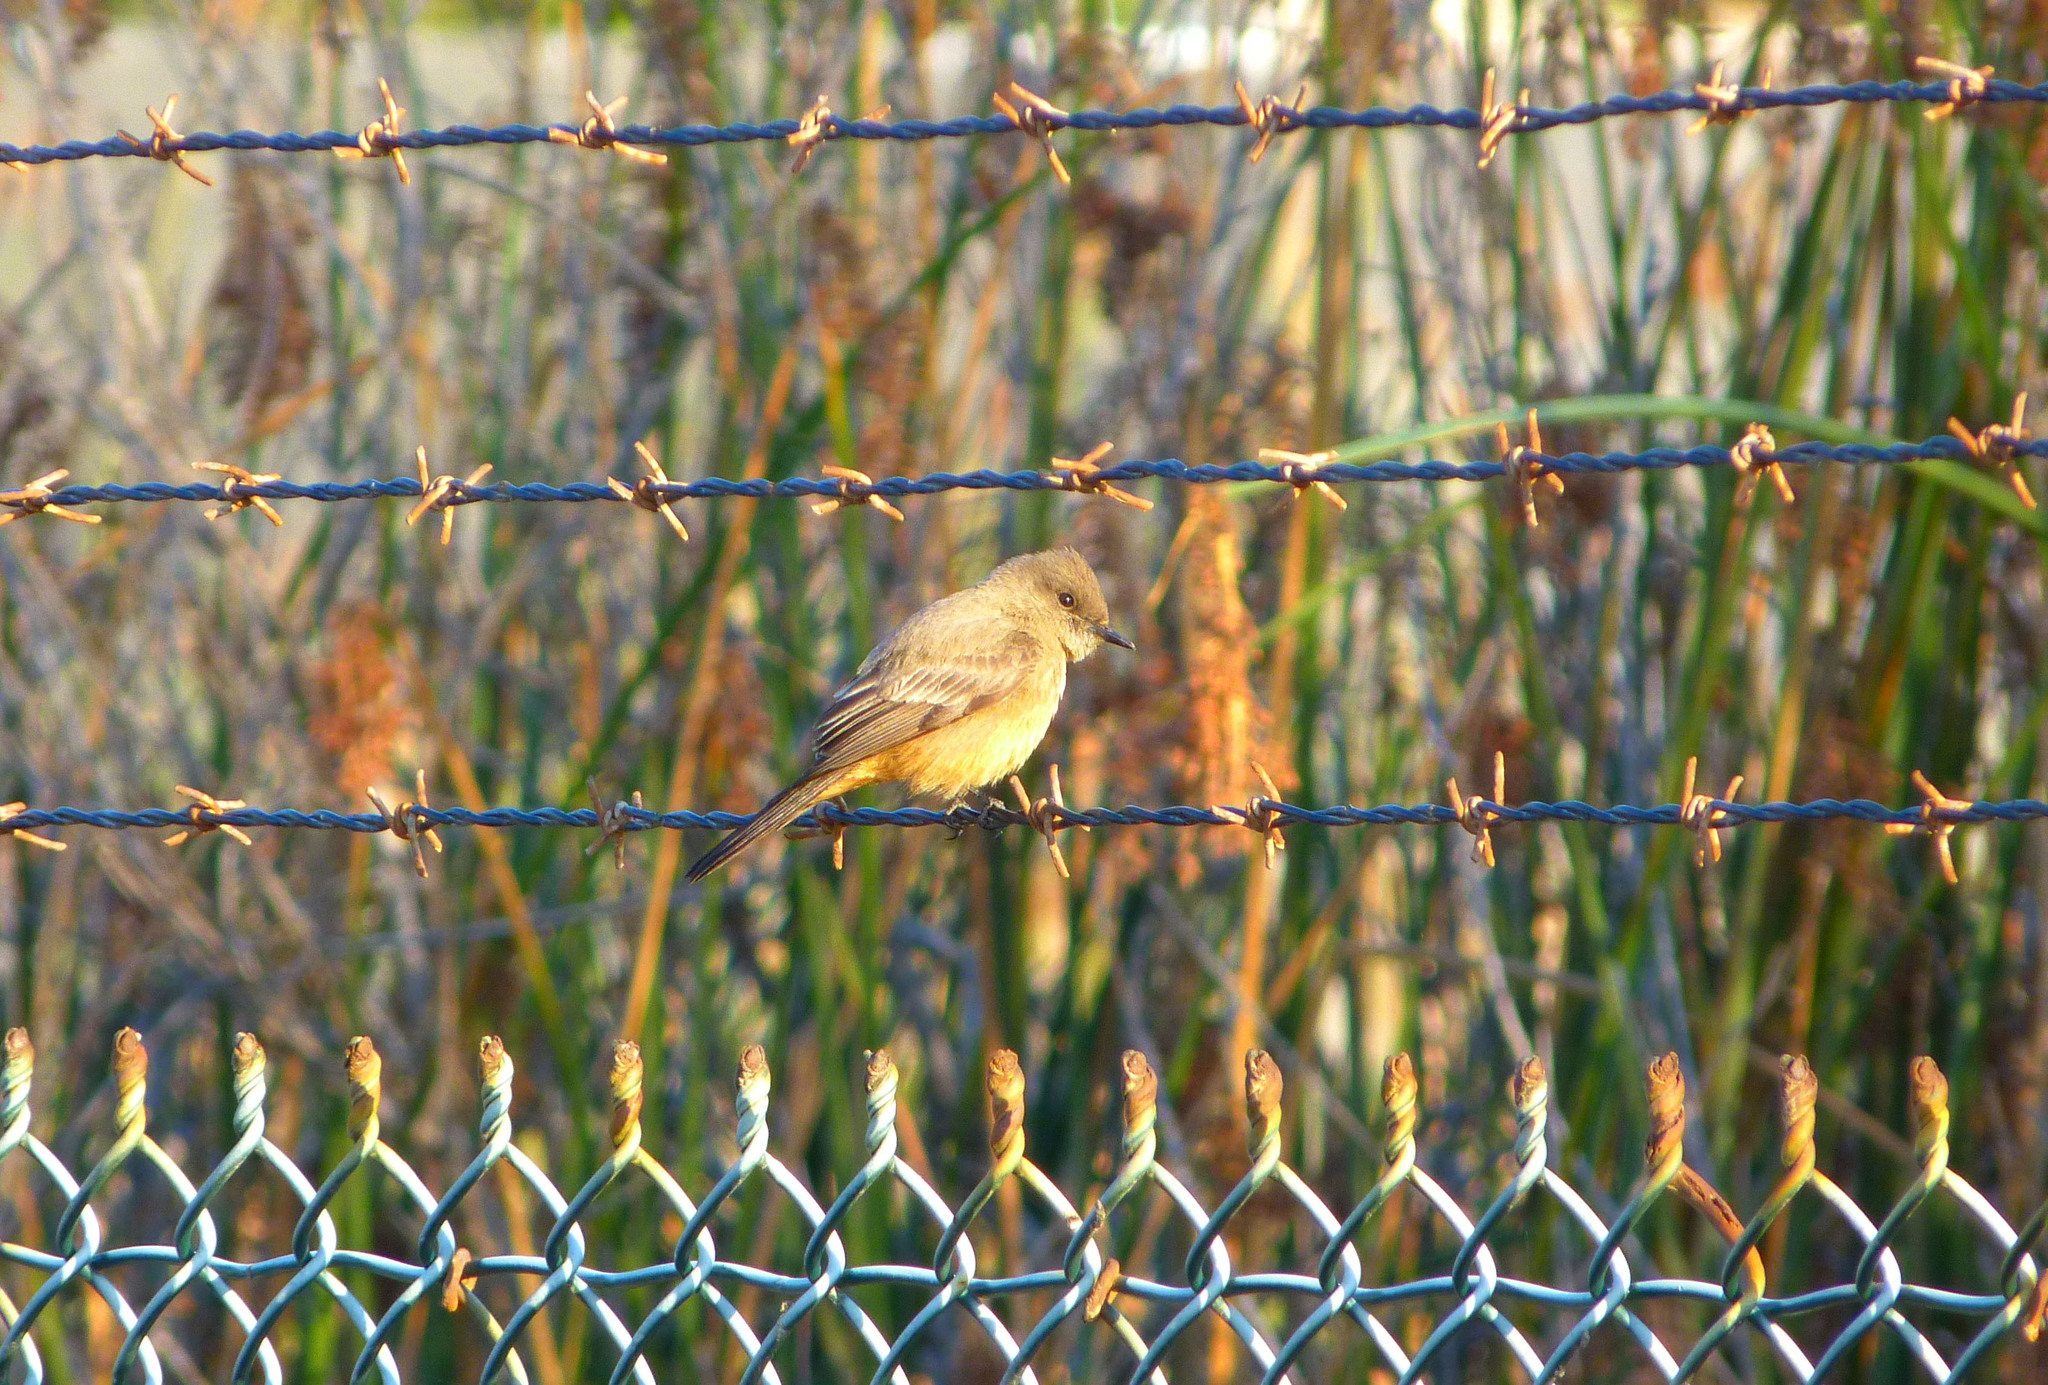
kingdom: Animalia
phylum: Chordata
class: Aves
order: Passeriformes
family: Tyrannidae
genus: Sayornis
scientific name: Sayornis saya
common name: Say's phoebe
